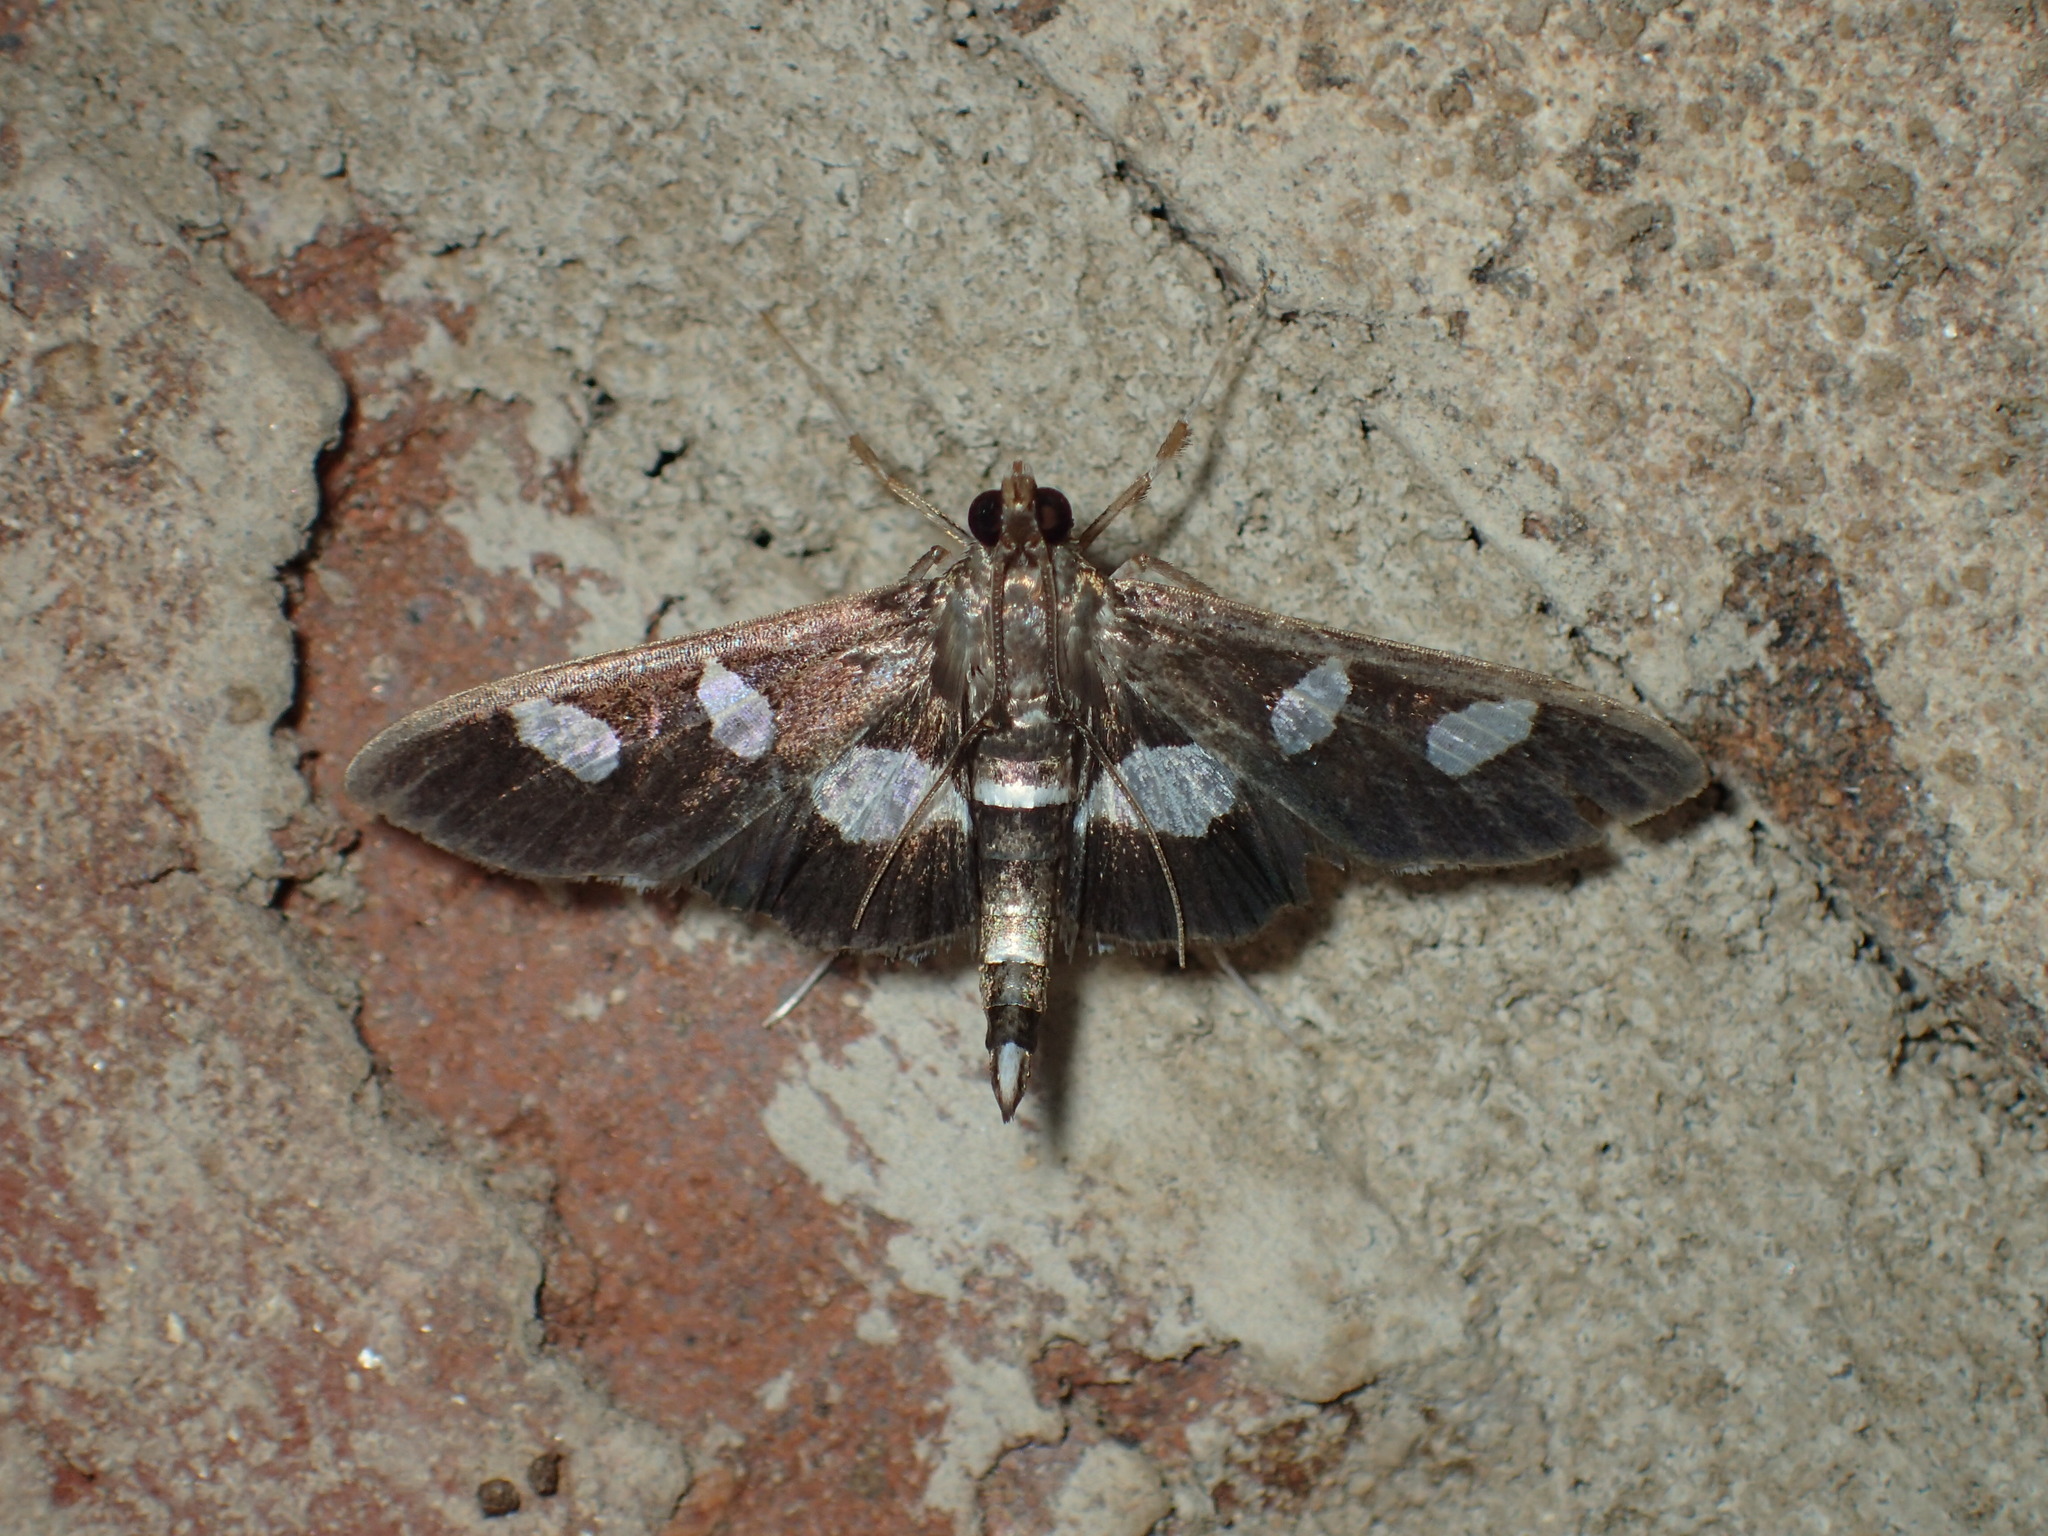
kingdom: Animalia
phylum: Arthropoda
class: Insecta
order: Lepidoptera
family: Crambidae
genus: Desmia
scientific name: Desmia
